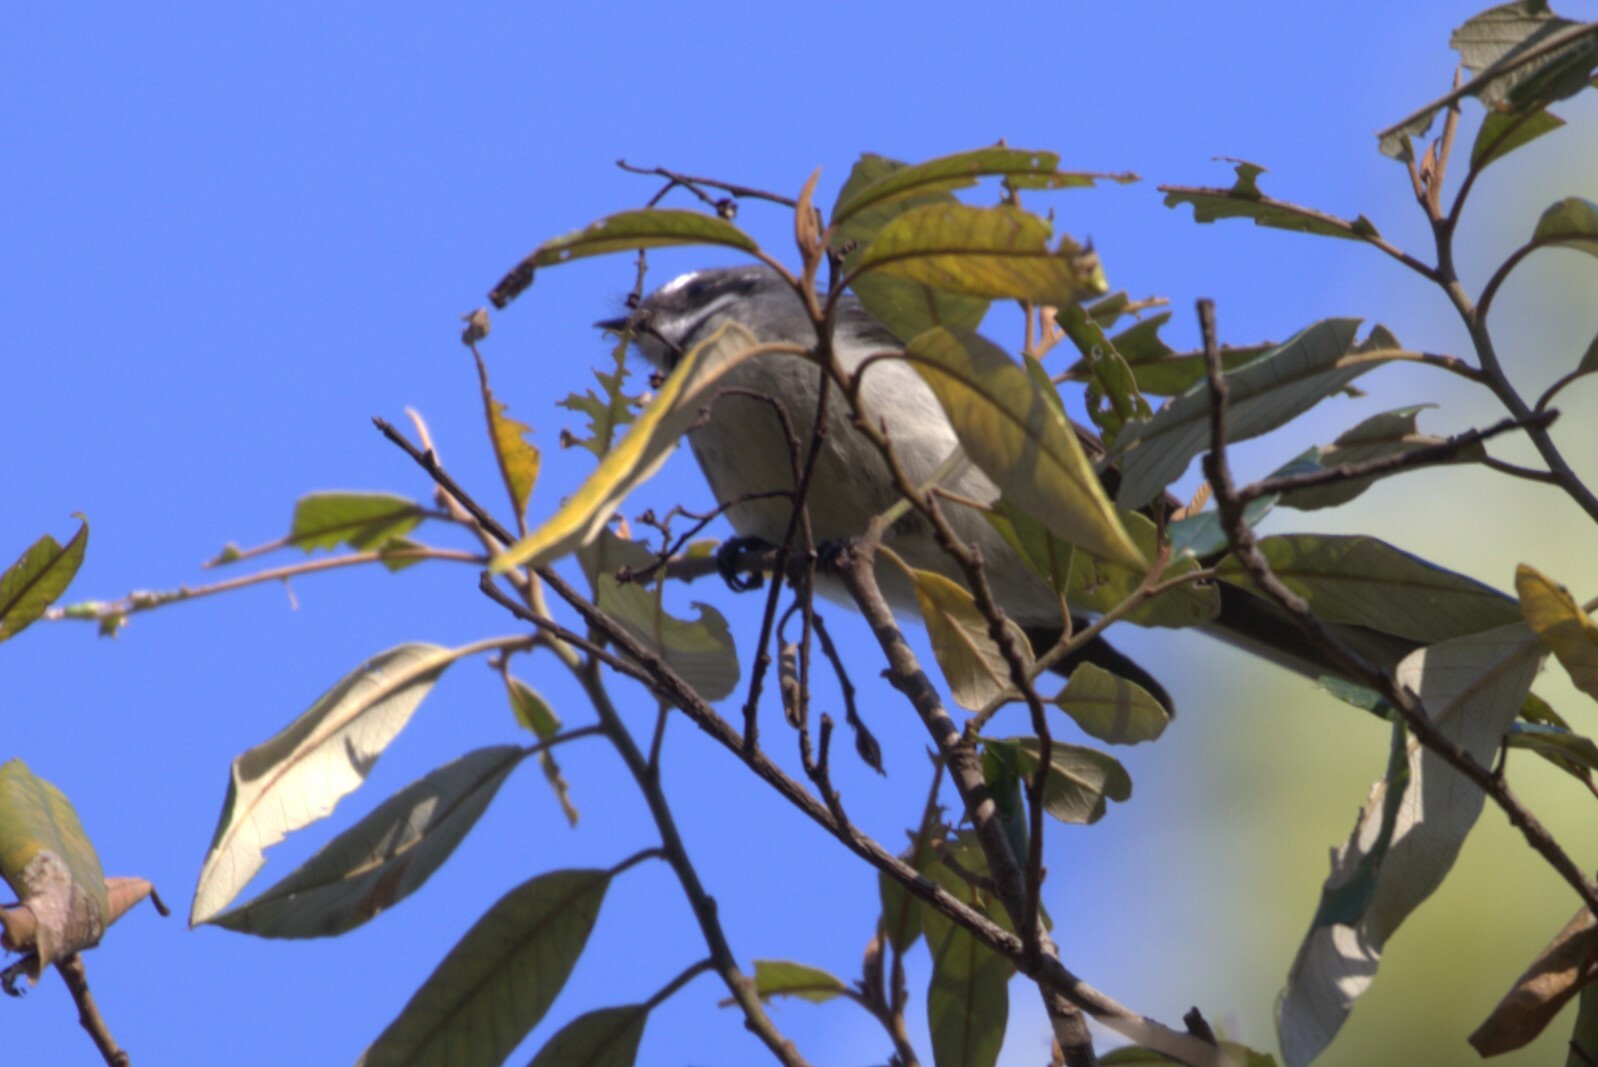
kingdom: Animalia
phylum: Chordata
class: Aves
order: Passeriformes
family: Rhipiduridae
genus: Rhipidura
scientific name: Rhipidura albiscapa
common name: Grey fantail
